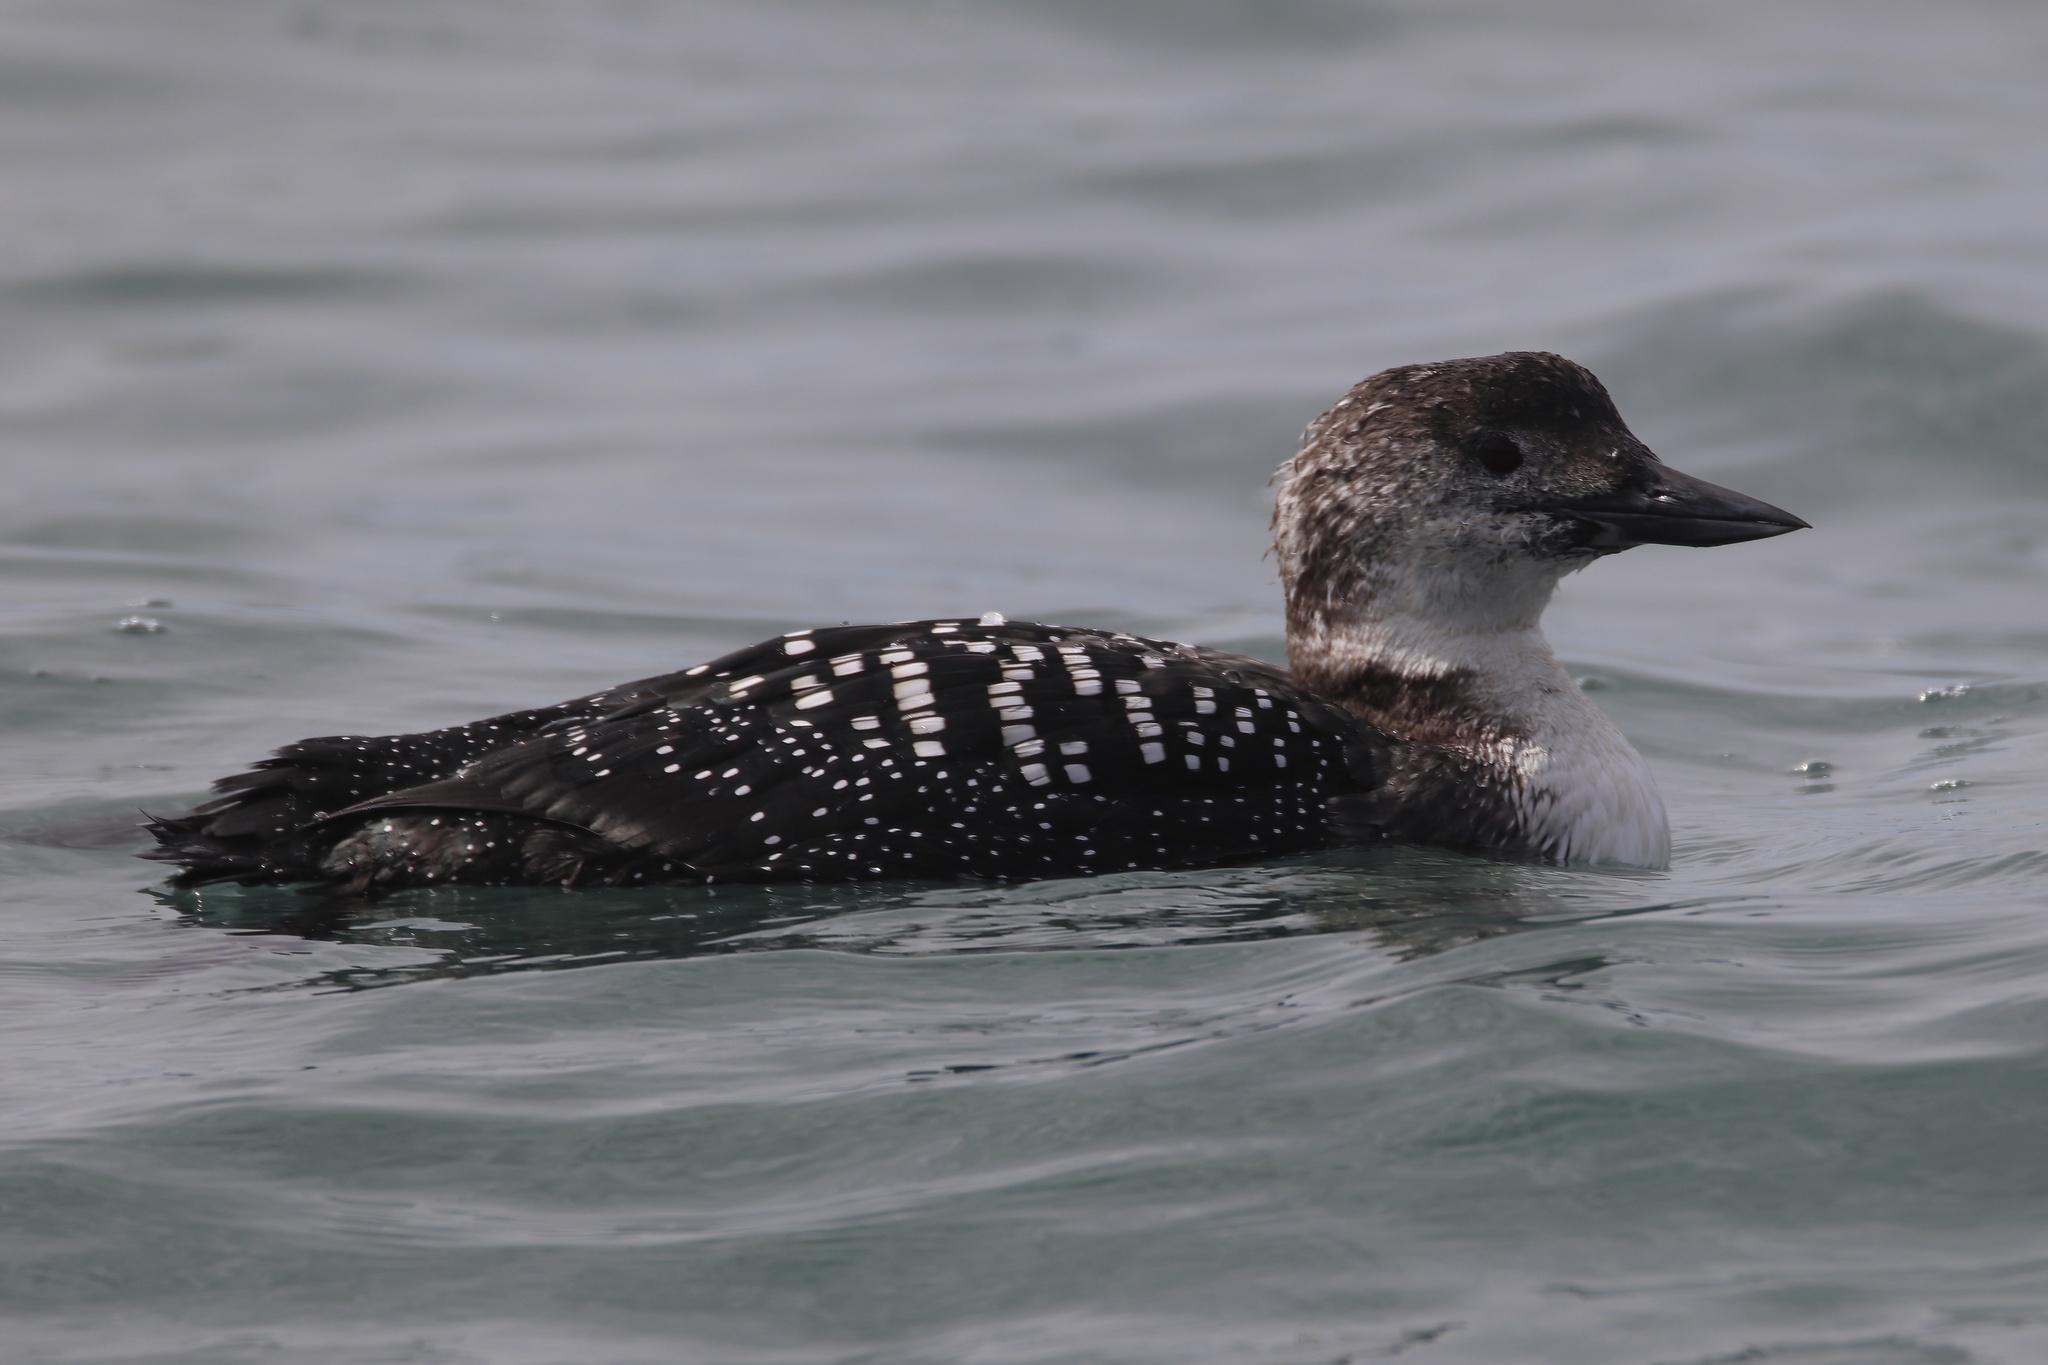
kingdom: Animalia
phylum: Chordata
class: Aves
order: Gaviiformes
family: Gaviidae
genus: Gavia
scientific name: Gavia immer
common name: Common loon
